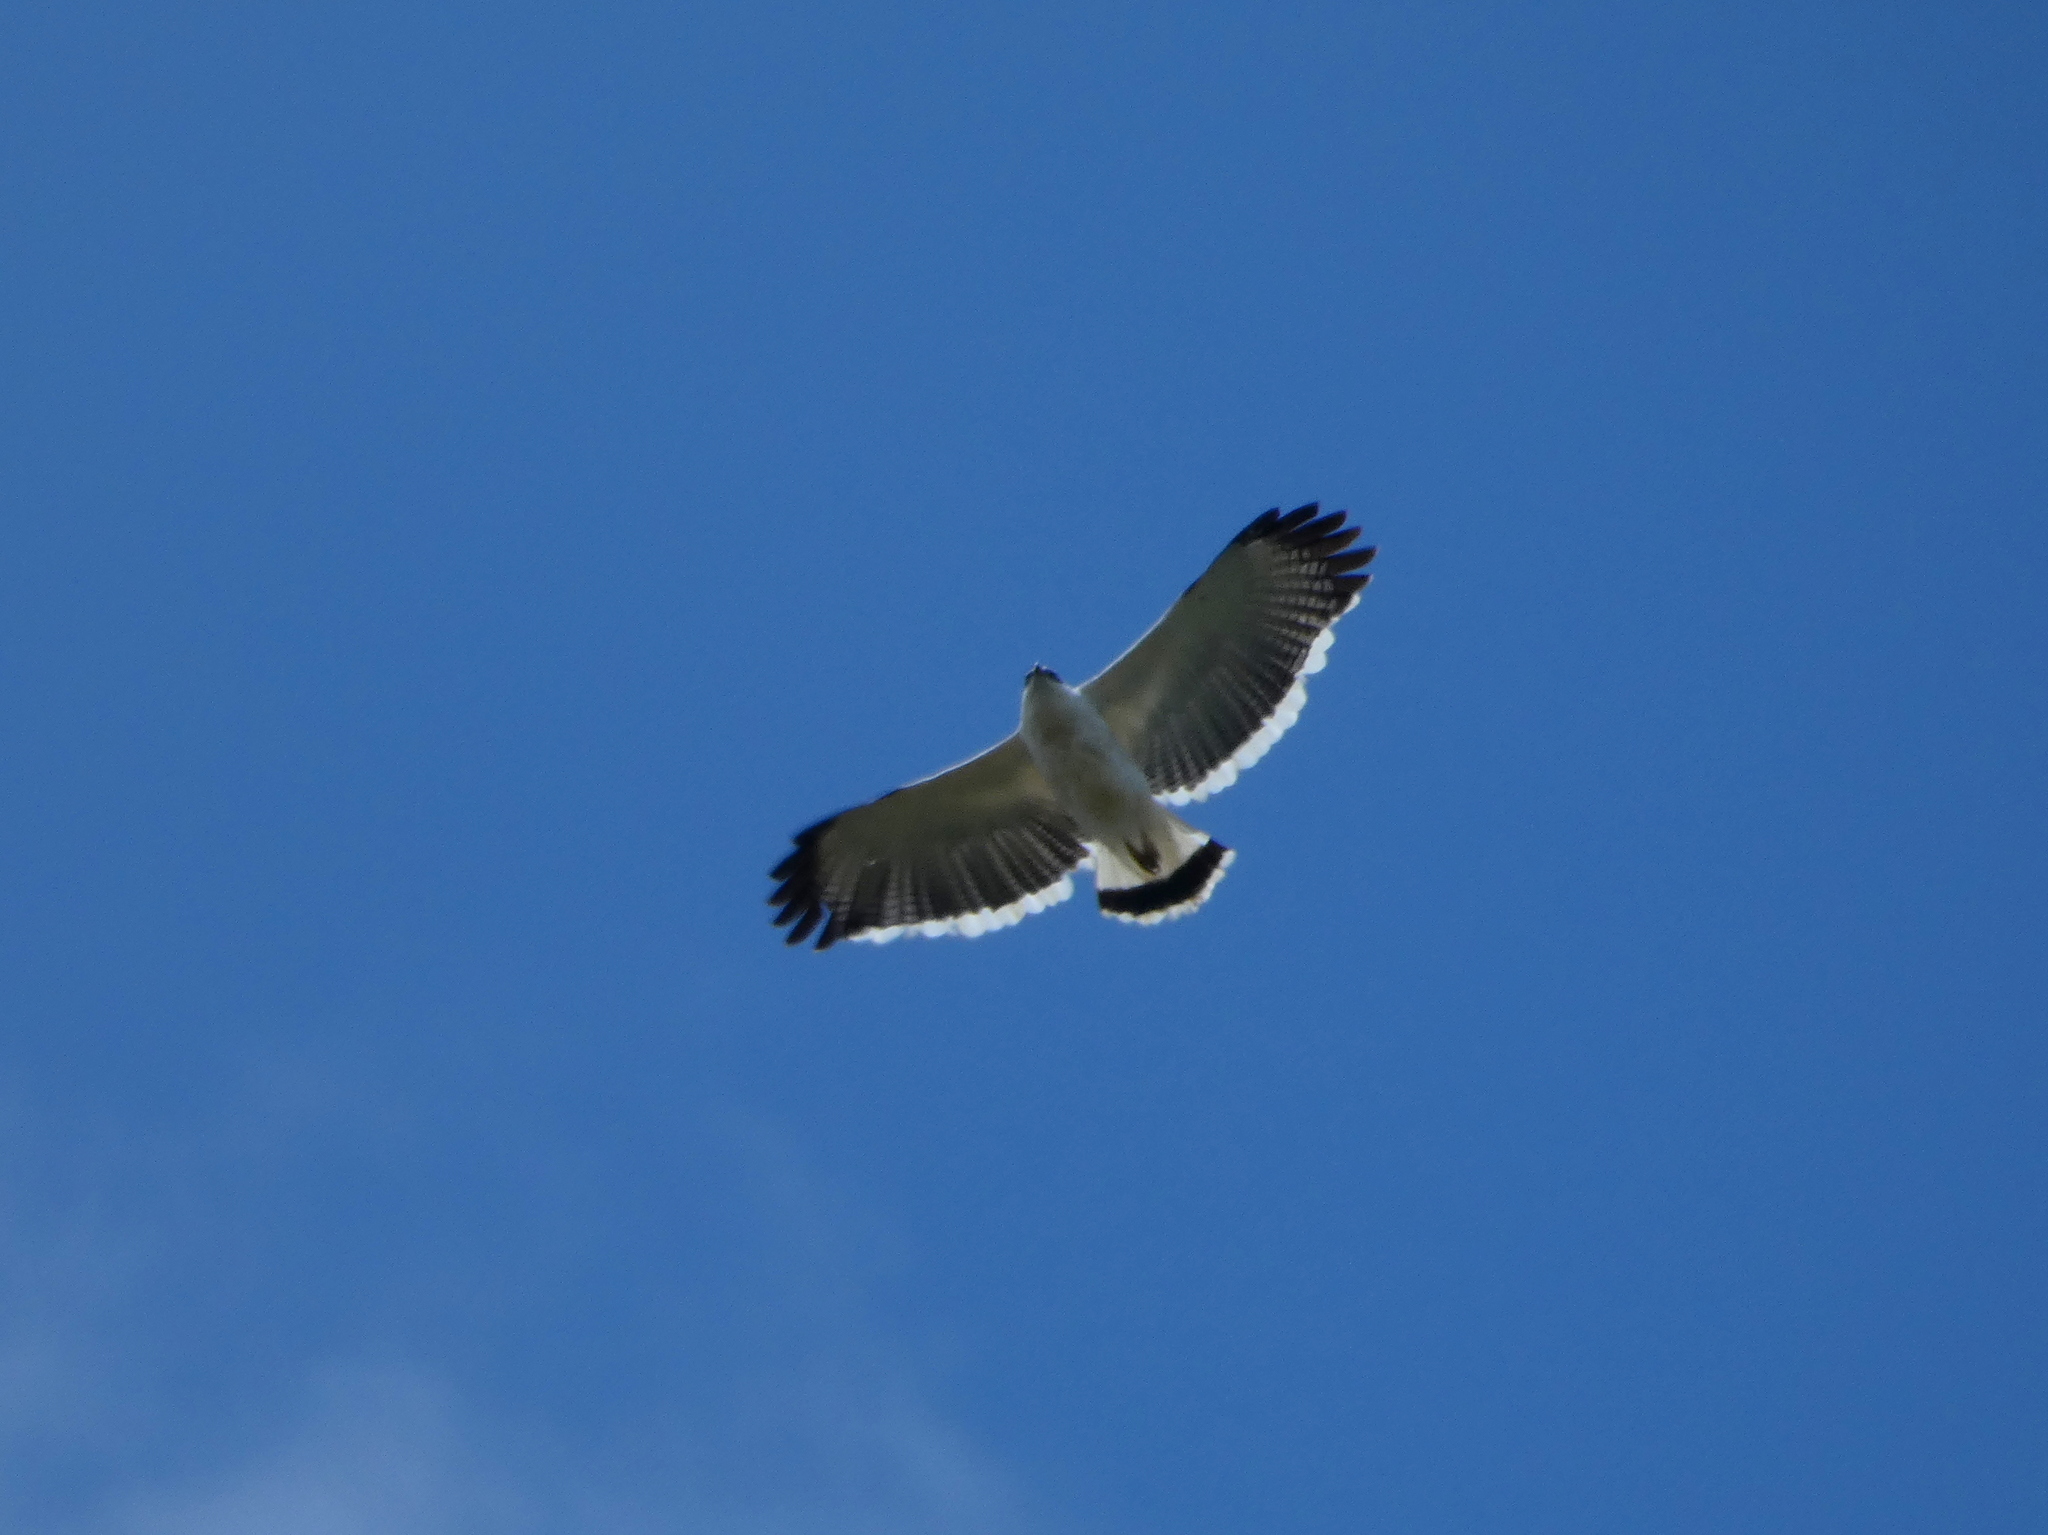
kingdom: Animalia
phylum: Chordata
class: Aves
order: Accipitriformes
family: Accipitridae
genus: Leucopternis
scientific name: Leucopternis albicollis
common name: White hawk
